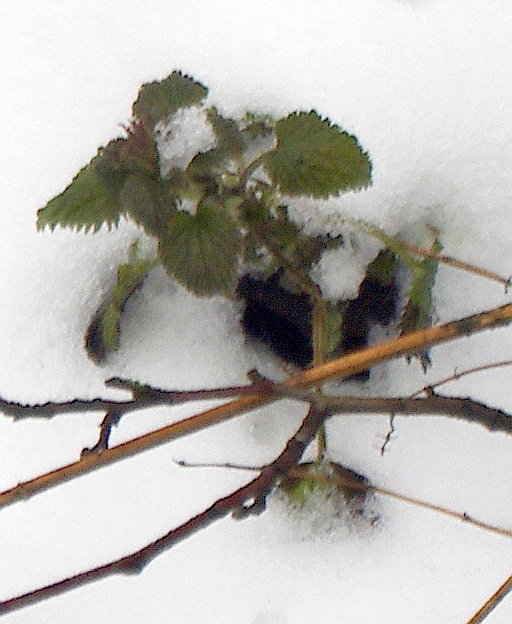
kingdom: Plantae
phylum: Tracheophyta
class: Magnoliopsida
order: Lamiales
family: Lamiaceae
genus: Lamium
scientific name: Lamium album
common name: White dead-nettle
